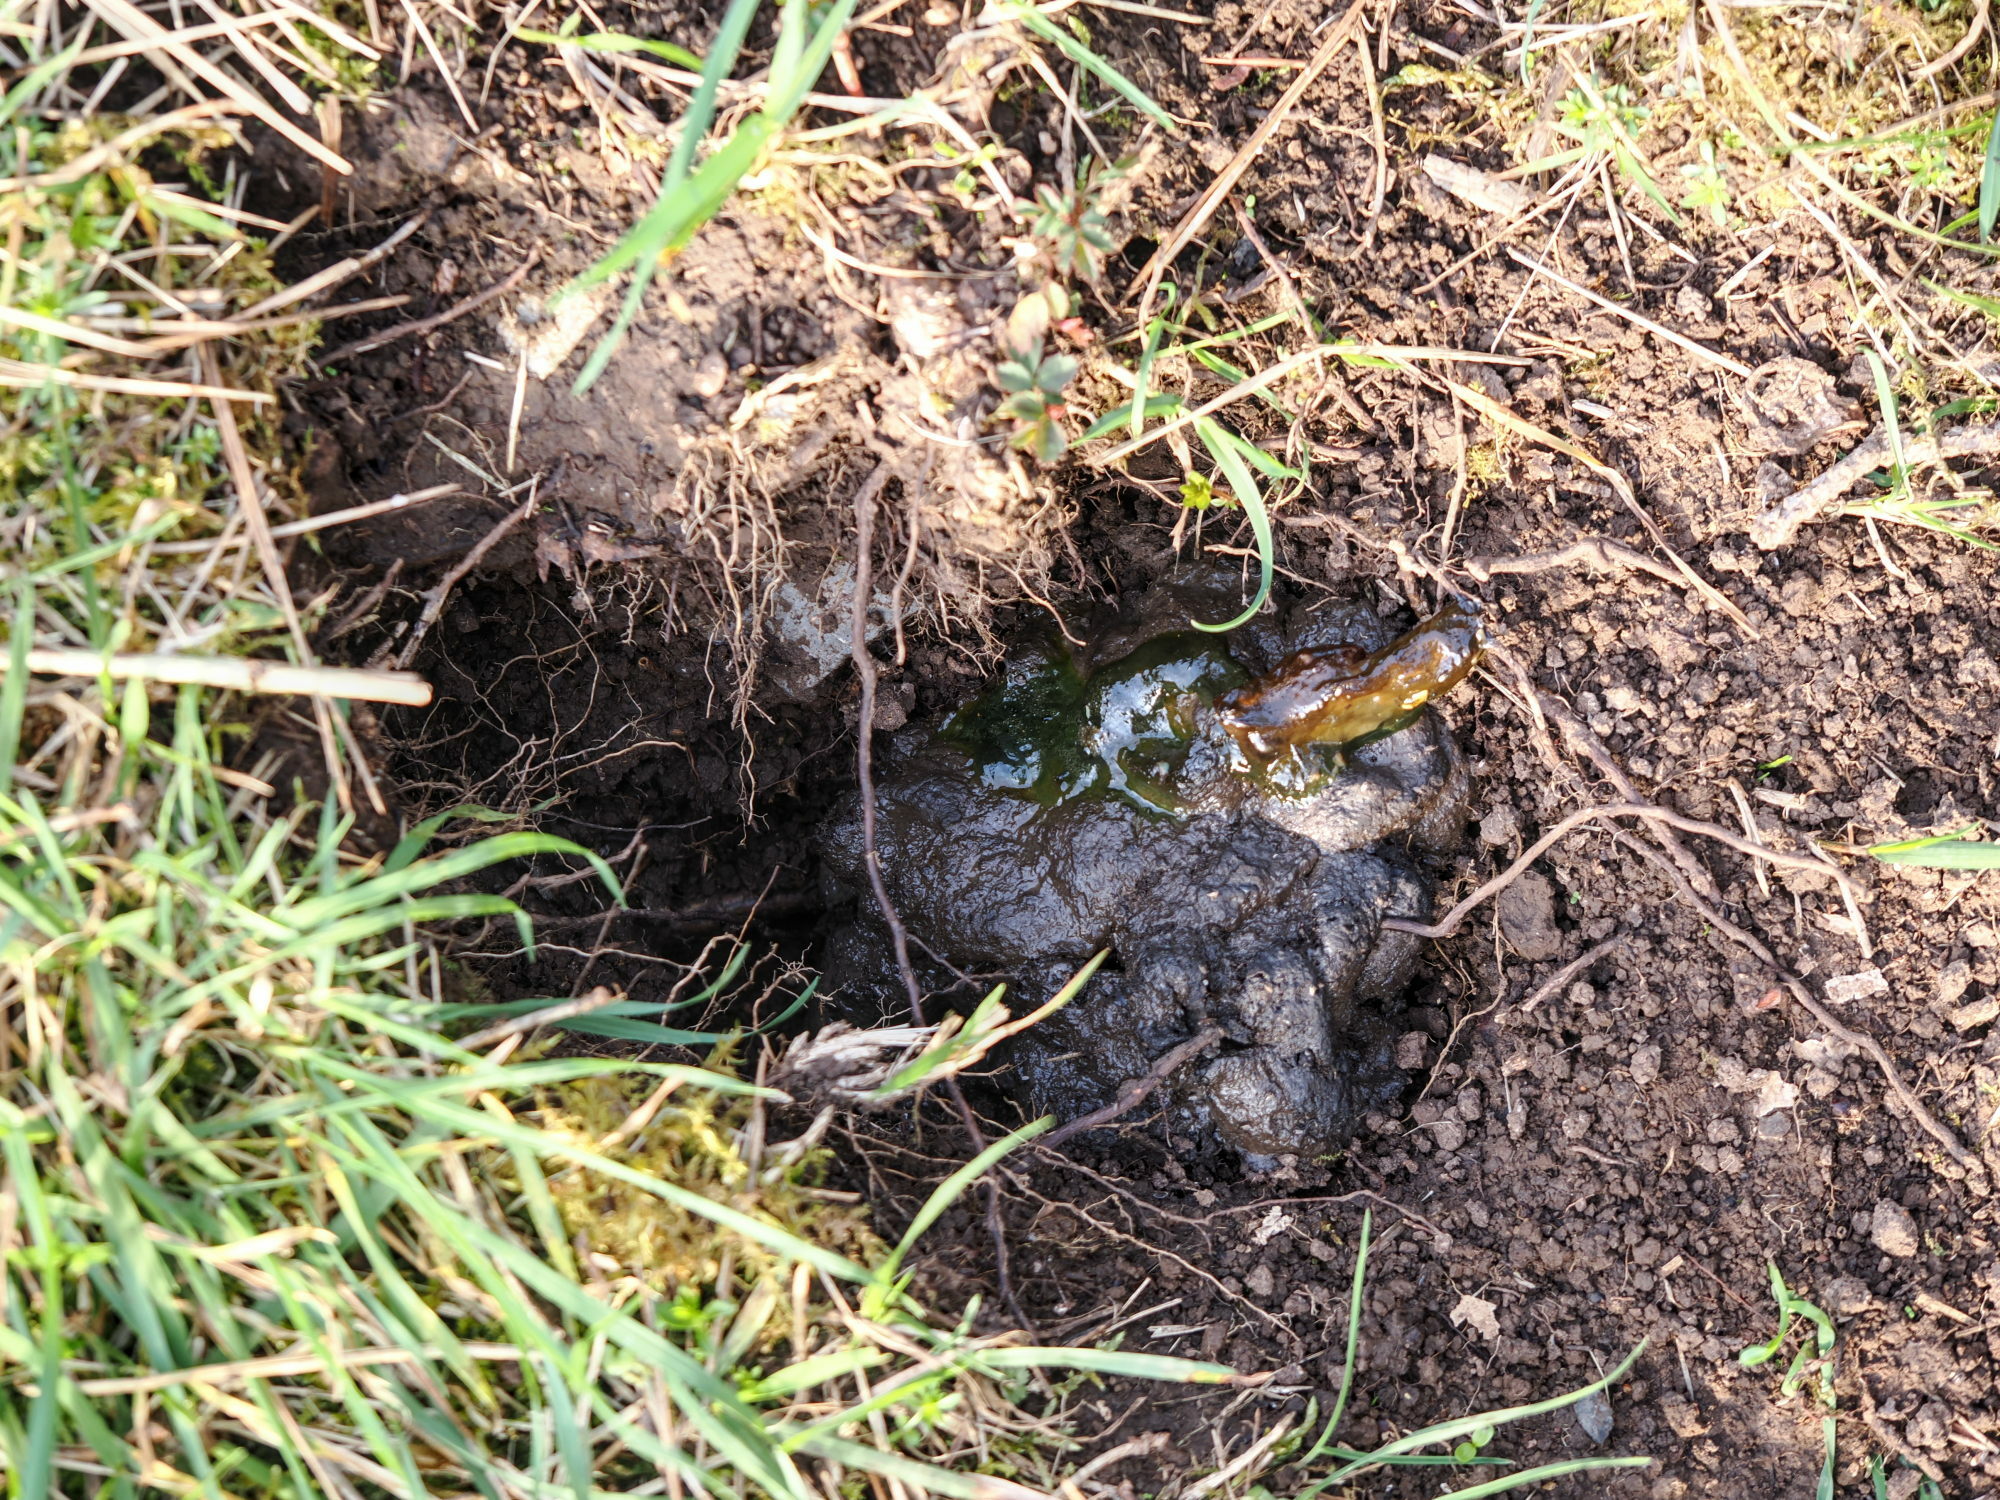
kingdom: Animalia
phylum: Chordata
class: Mammalia
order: Carnivora
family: Mustelidae
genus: Meles
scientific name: Meles meles
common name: Eurasian badger
